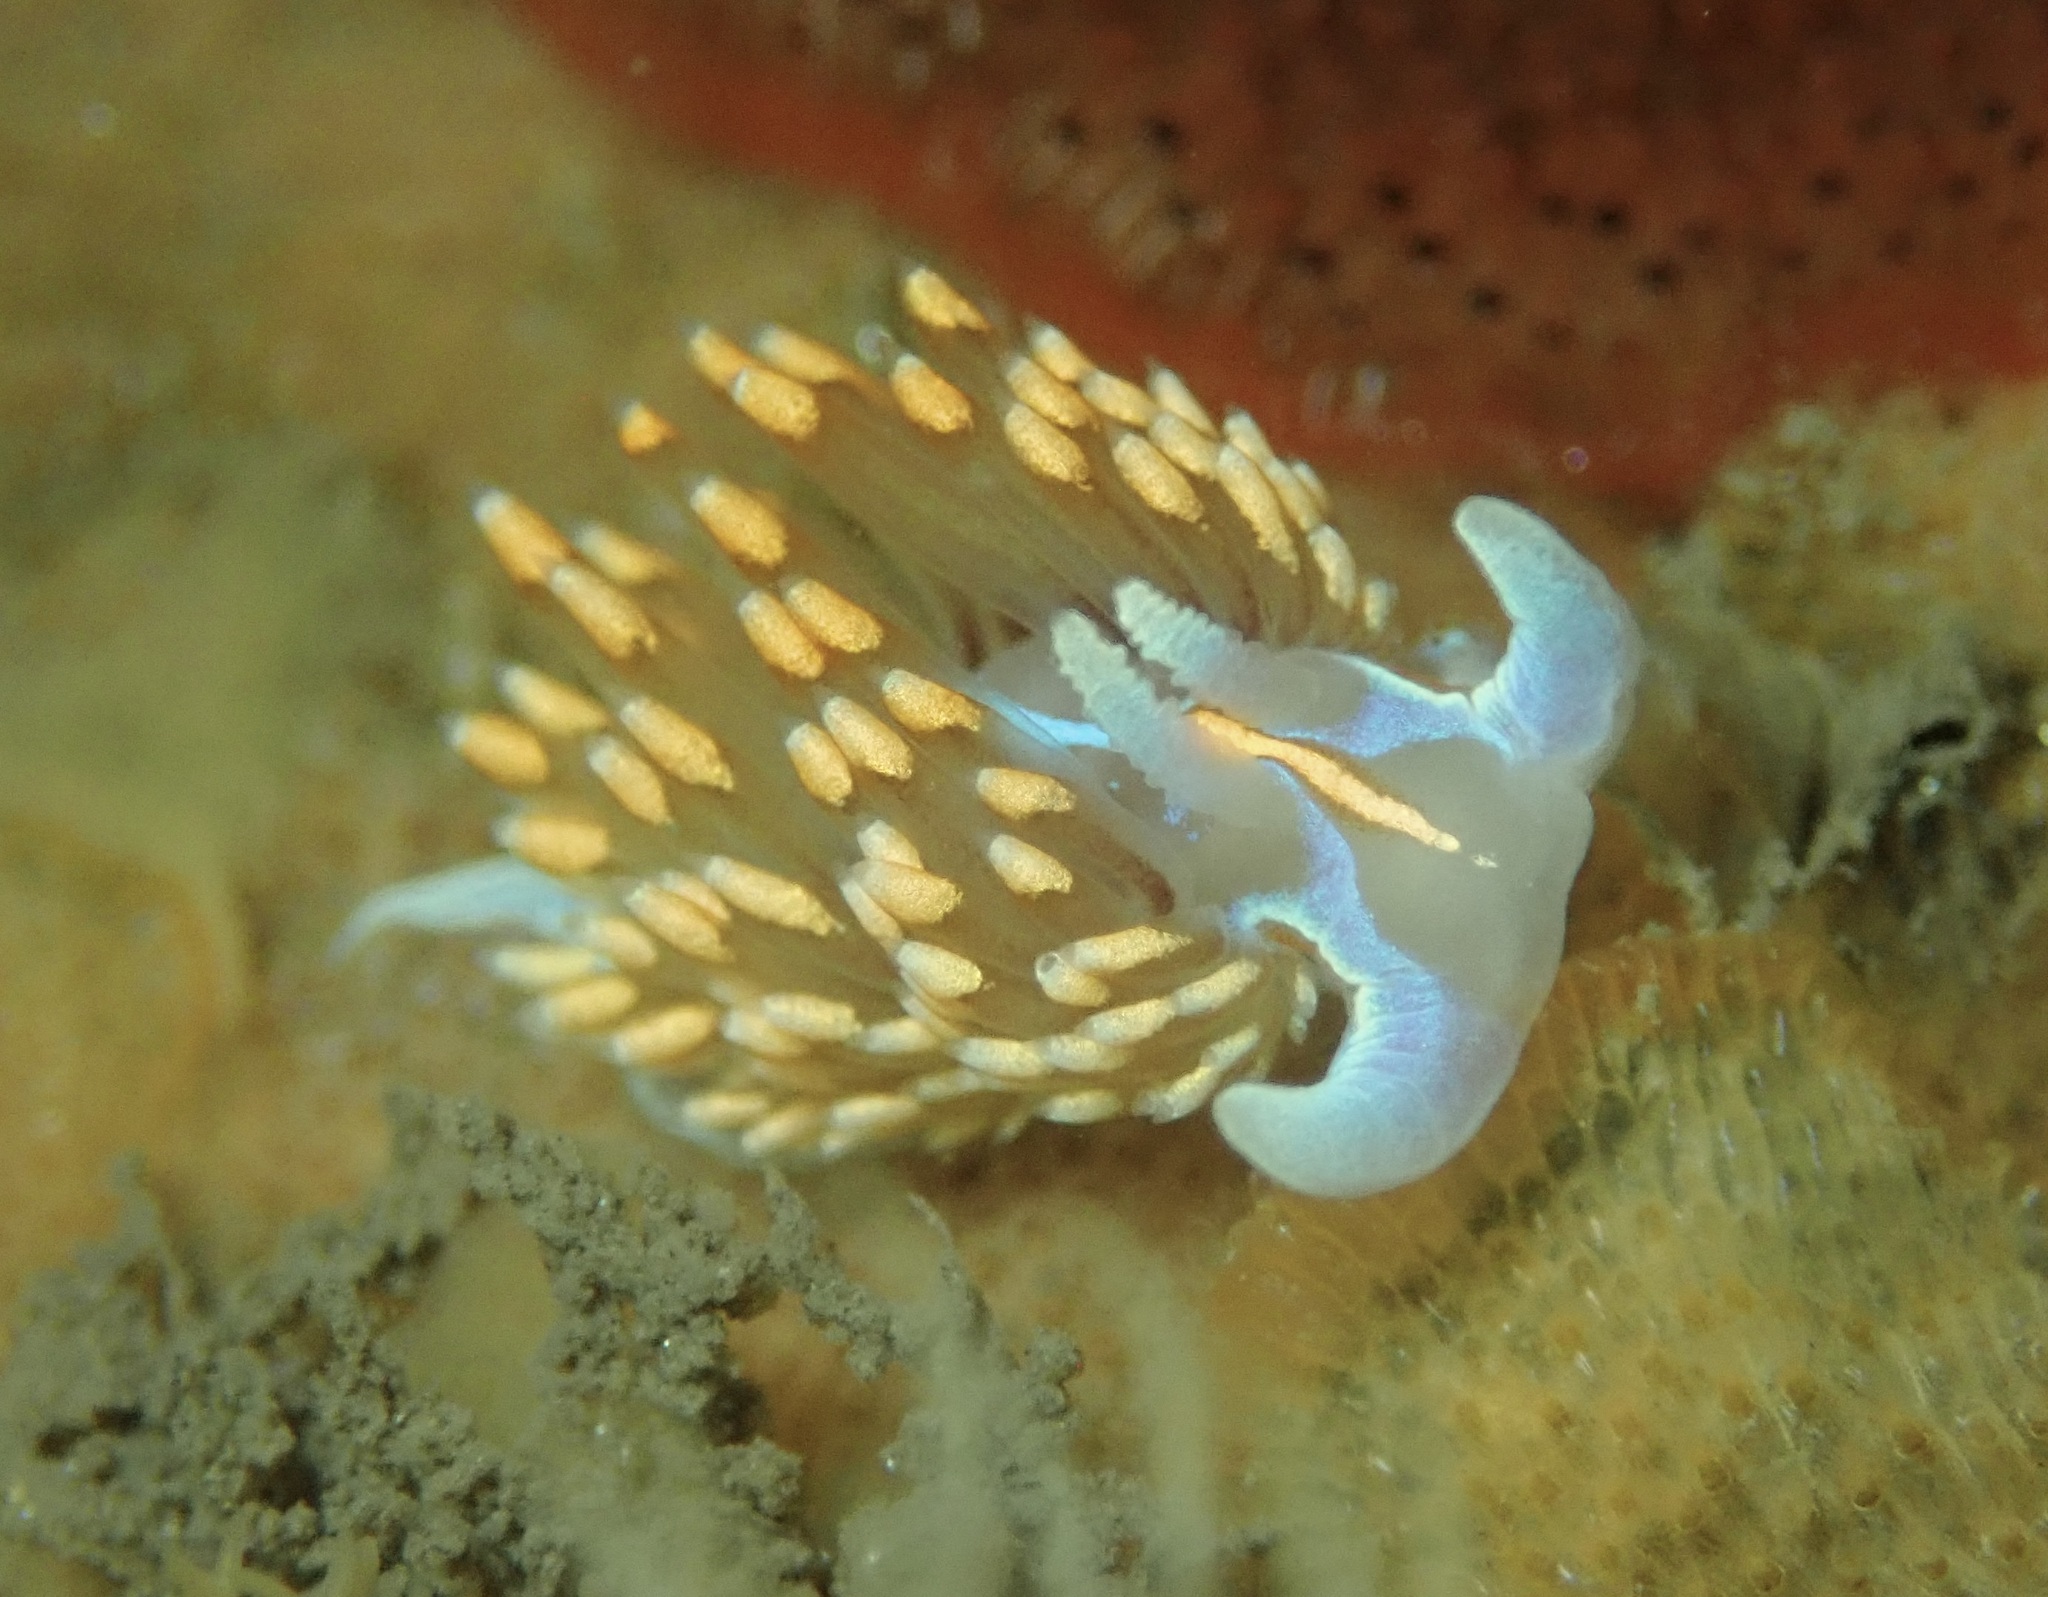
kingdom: Animalia
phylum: Mollusca
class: Gastropoda
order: Nudibranchia
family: Myrrhinidae
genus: Hermissenda
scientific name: Hermissenda opalescens
